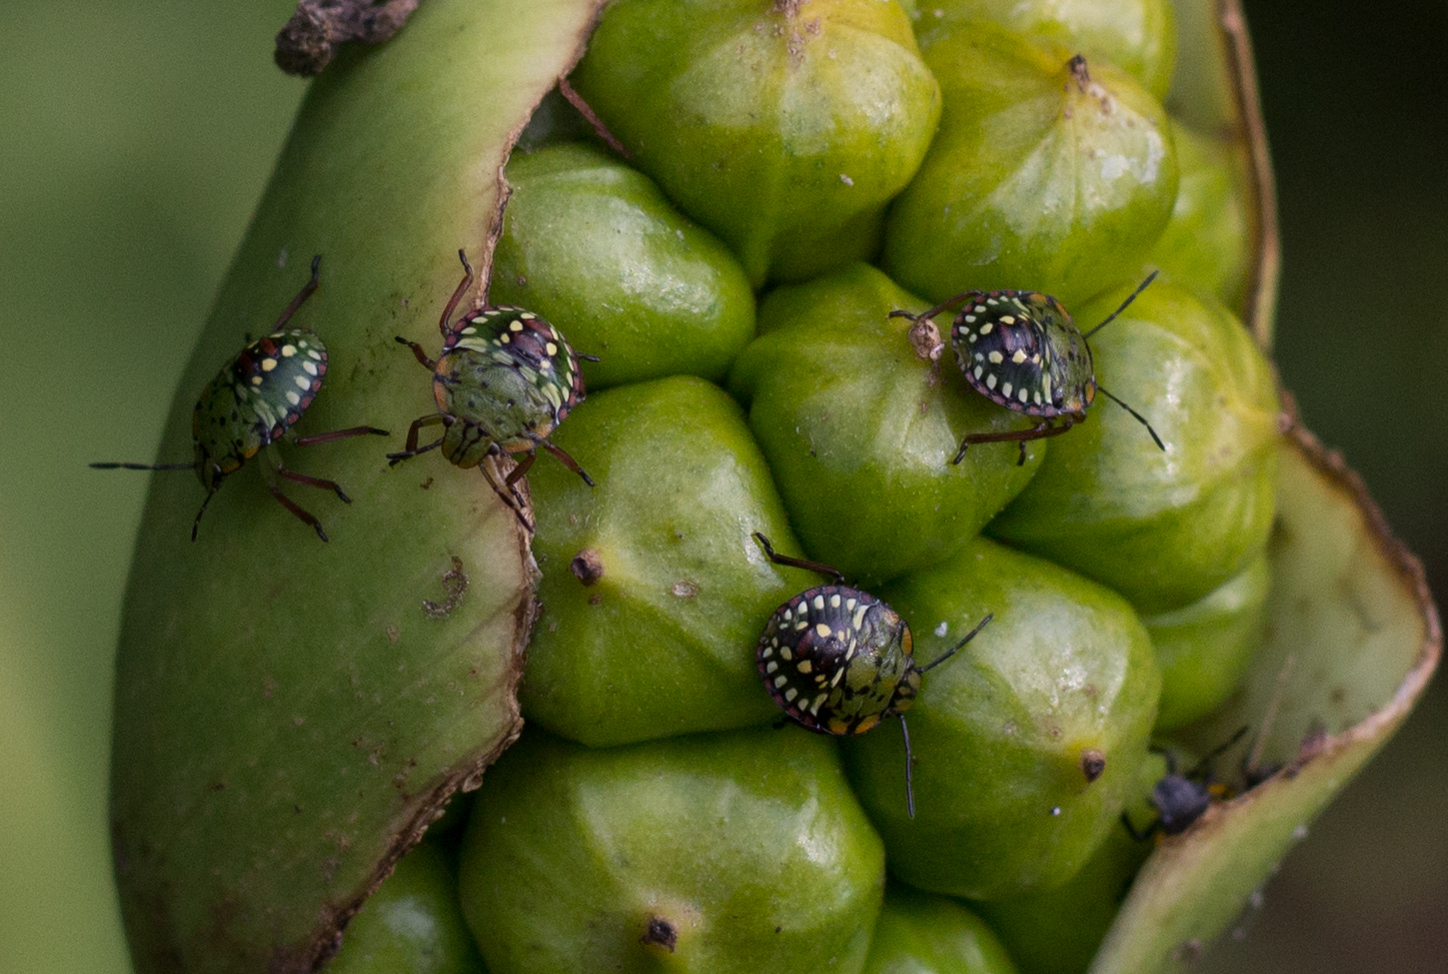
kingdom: Animalia
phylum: Arthropoda
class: Insecta
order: Hemiptera
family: Pentatomidae
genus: Nezara
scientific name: Nezara viridula
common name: Southern green stink bug
